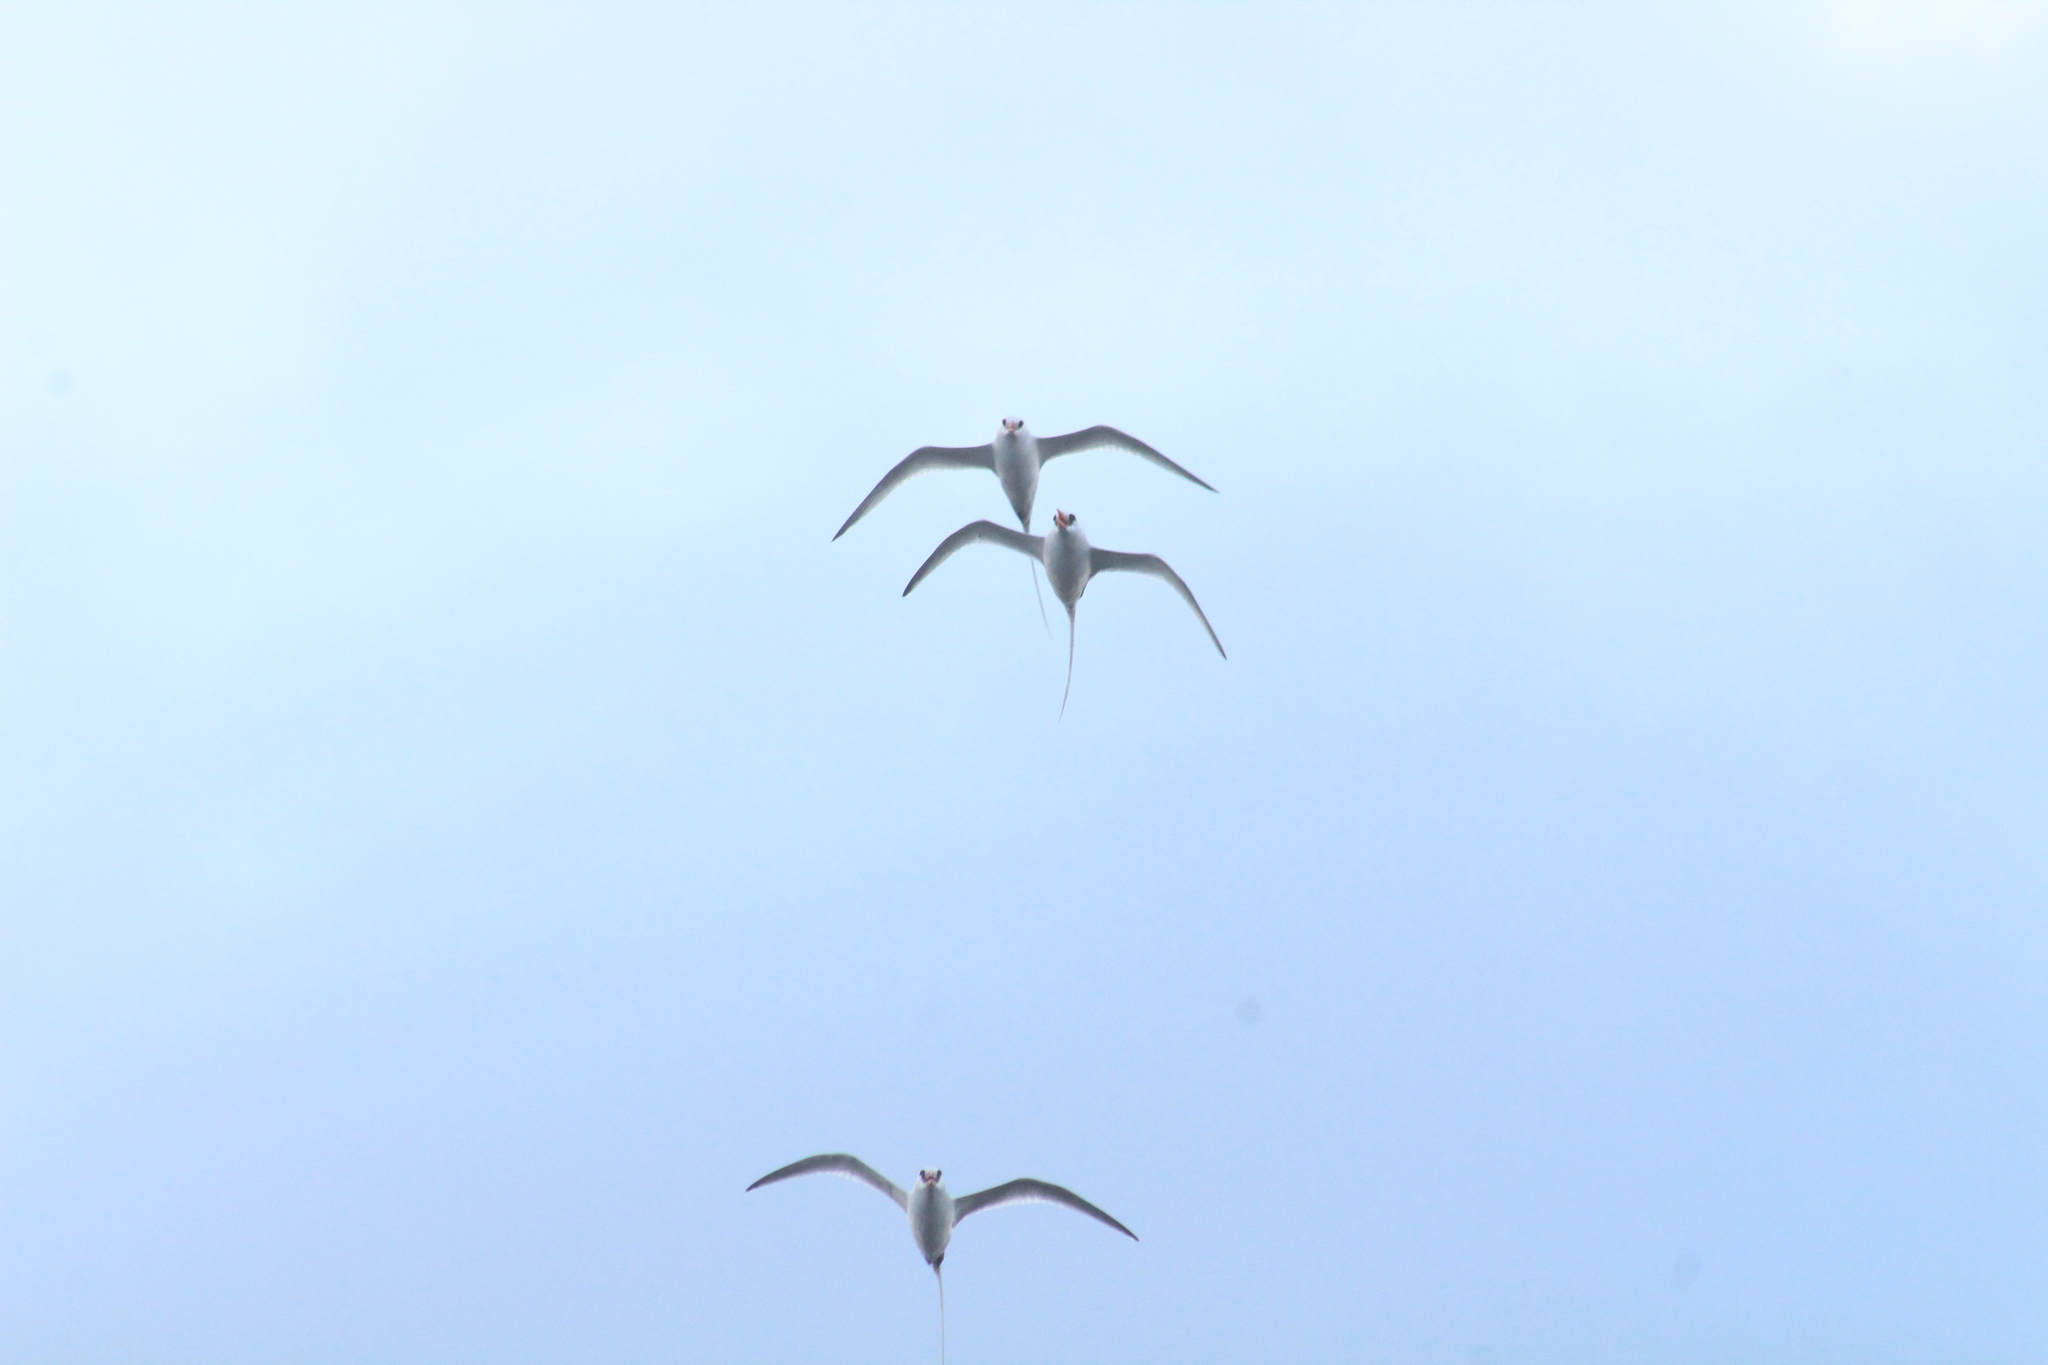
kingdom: Animalia
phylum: Chordata
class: Aves
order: Phaethontiformes
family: Phaethontidae
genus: Phaethon
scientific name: Phaethon aethereus
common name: Red-billed tropicbird
